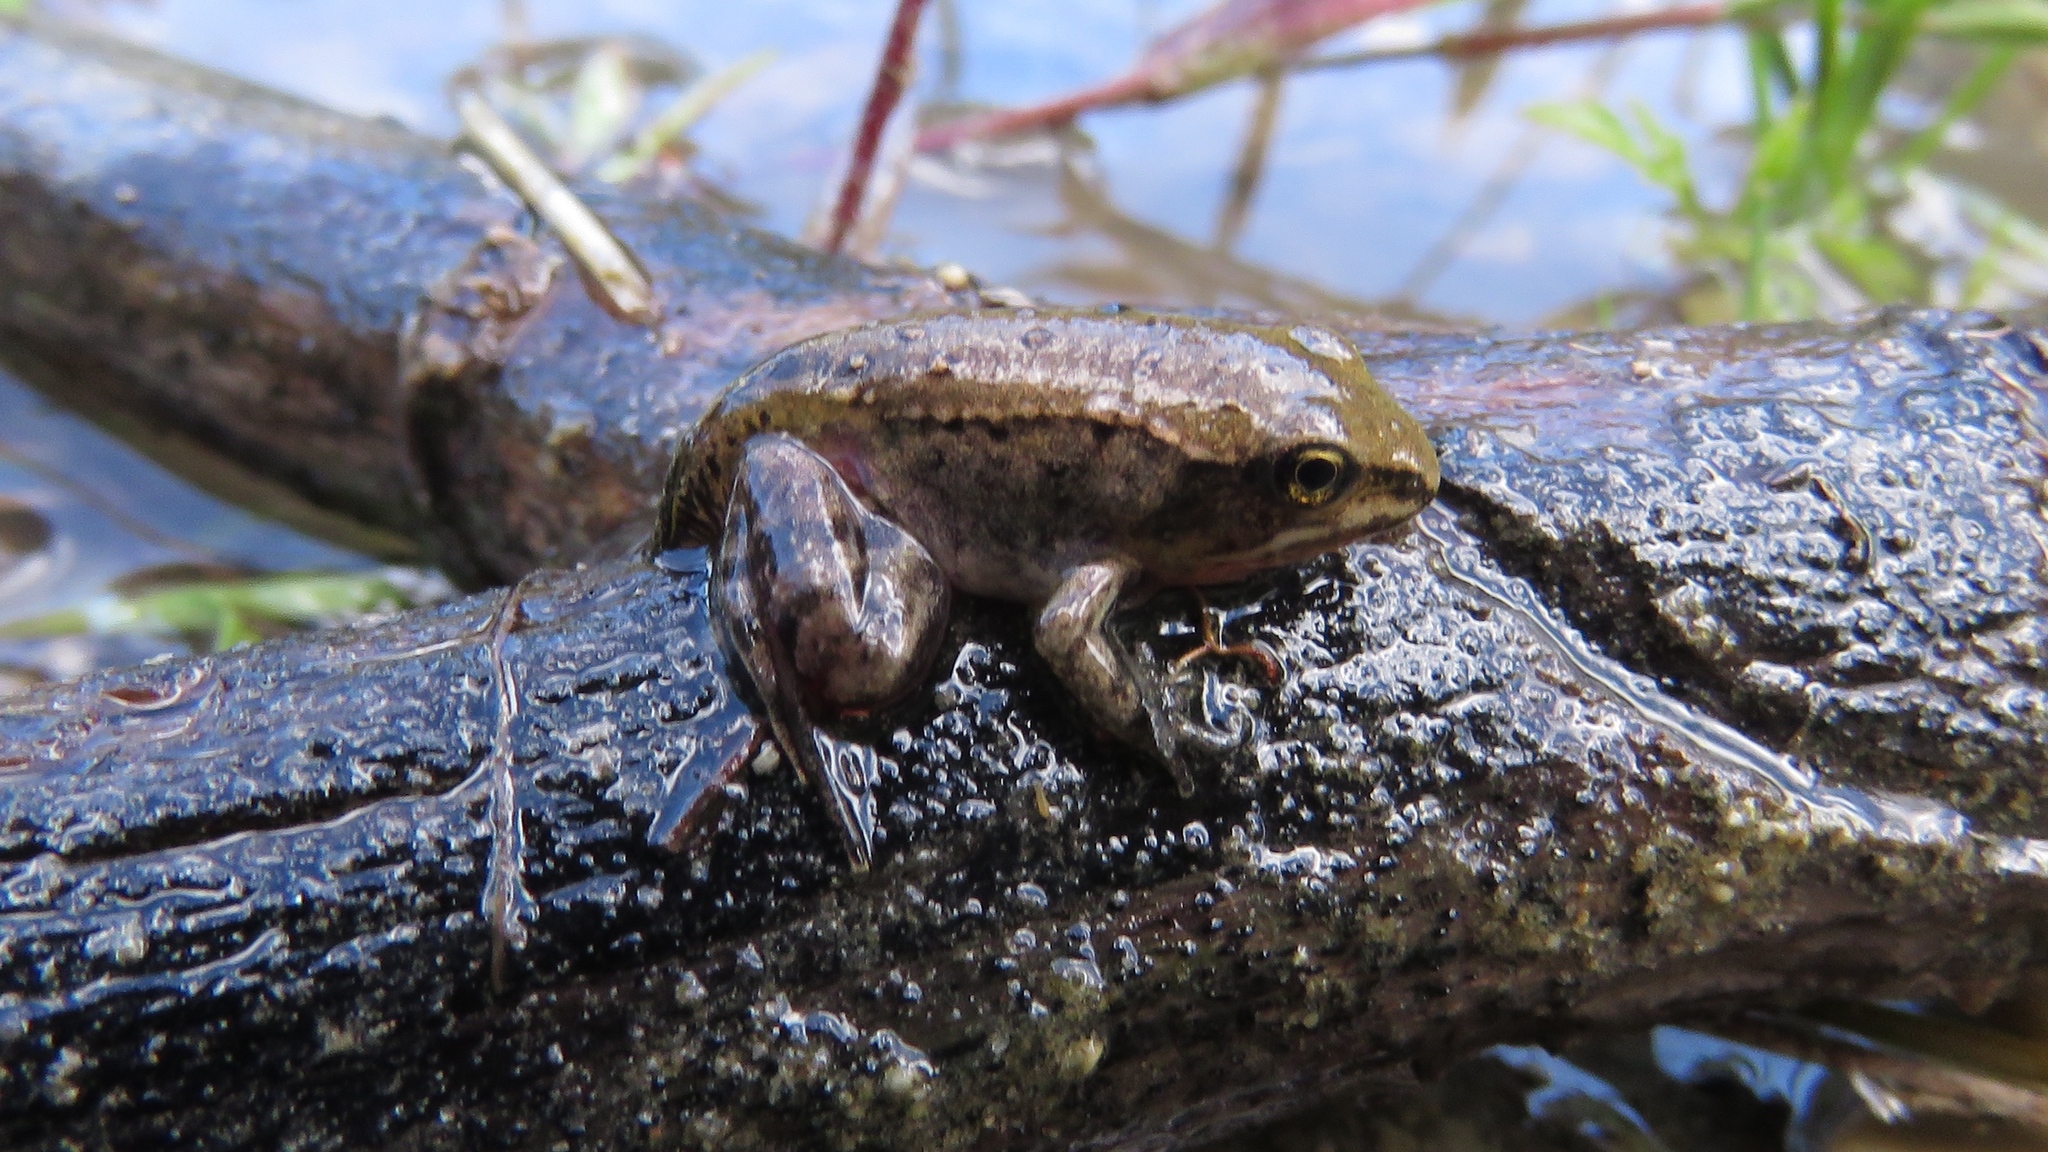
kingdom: Animalia
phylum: Chordata
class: Amphibia
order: Anura
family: Ranidae
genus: Lithobates
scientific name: Lithobates sylvaticus
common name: Wood frog
